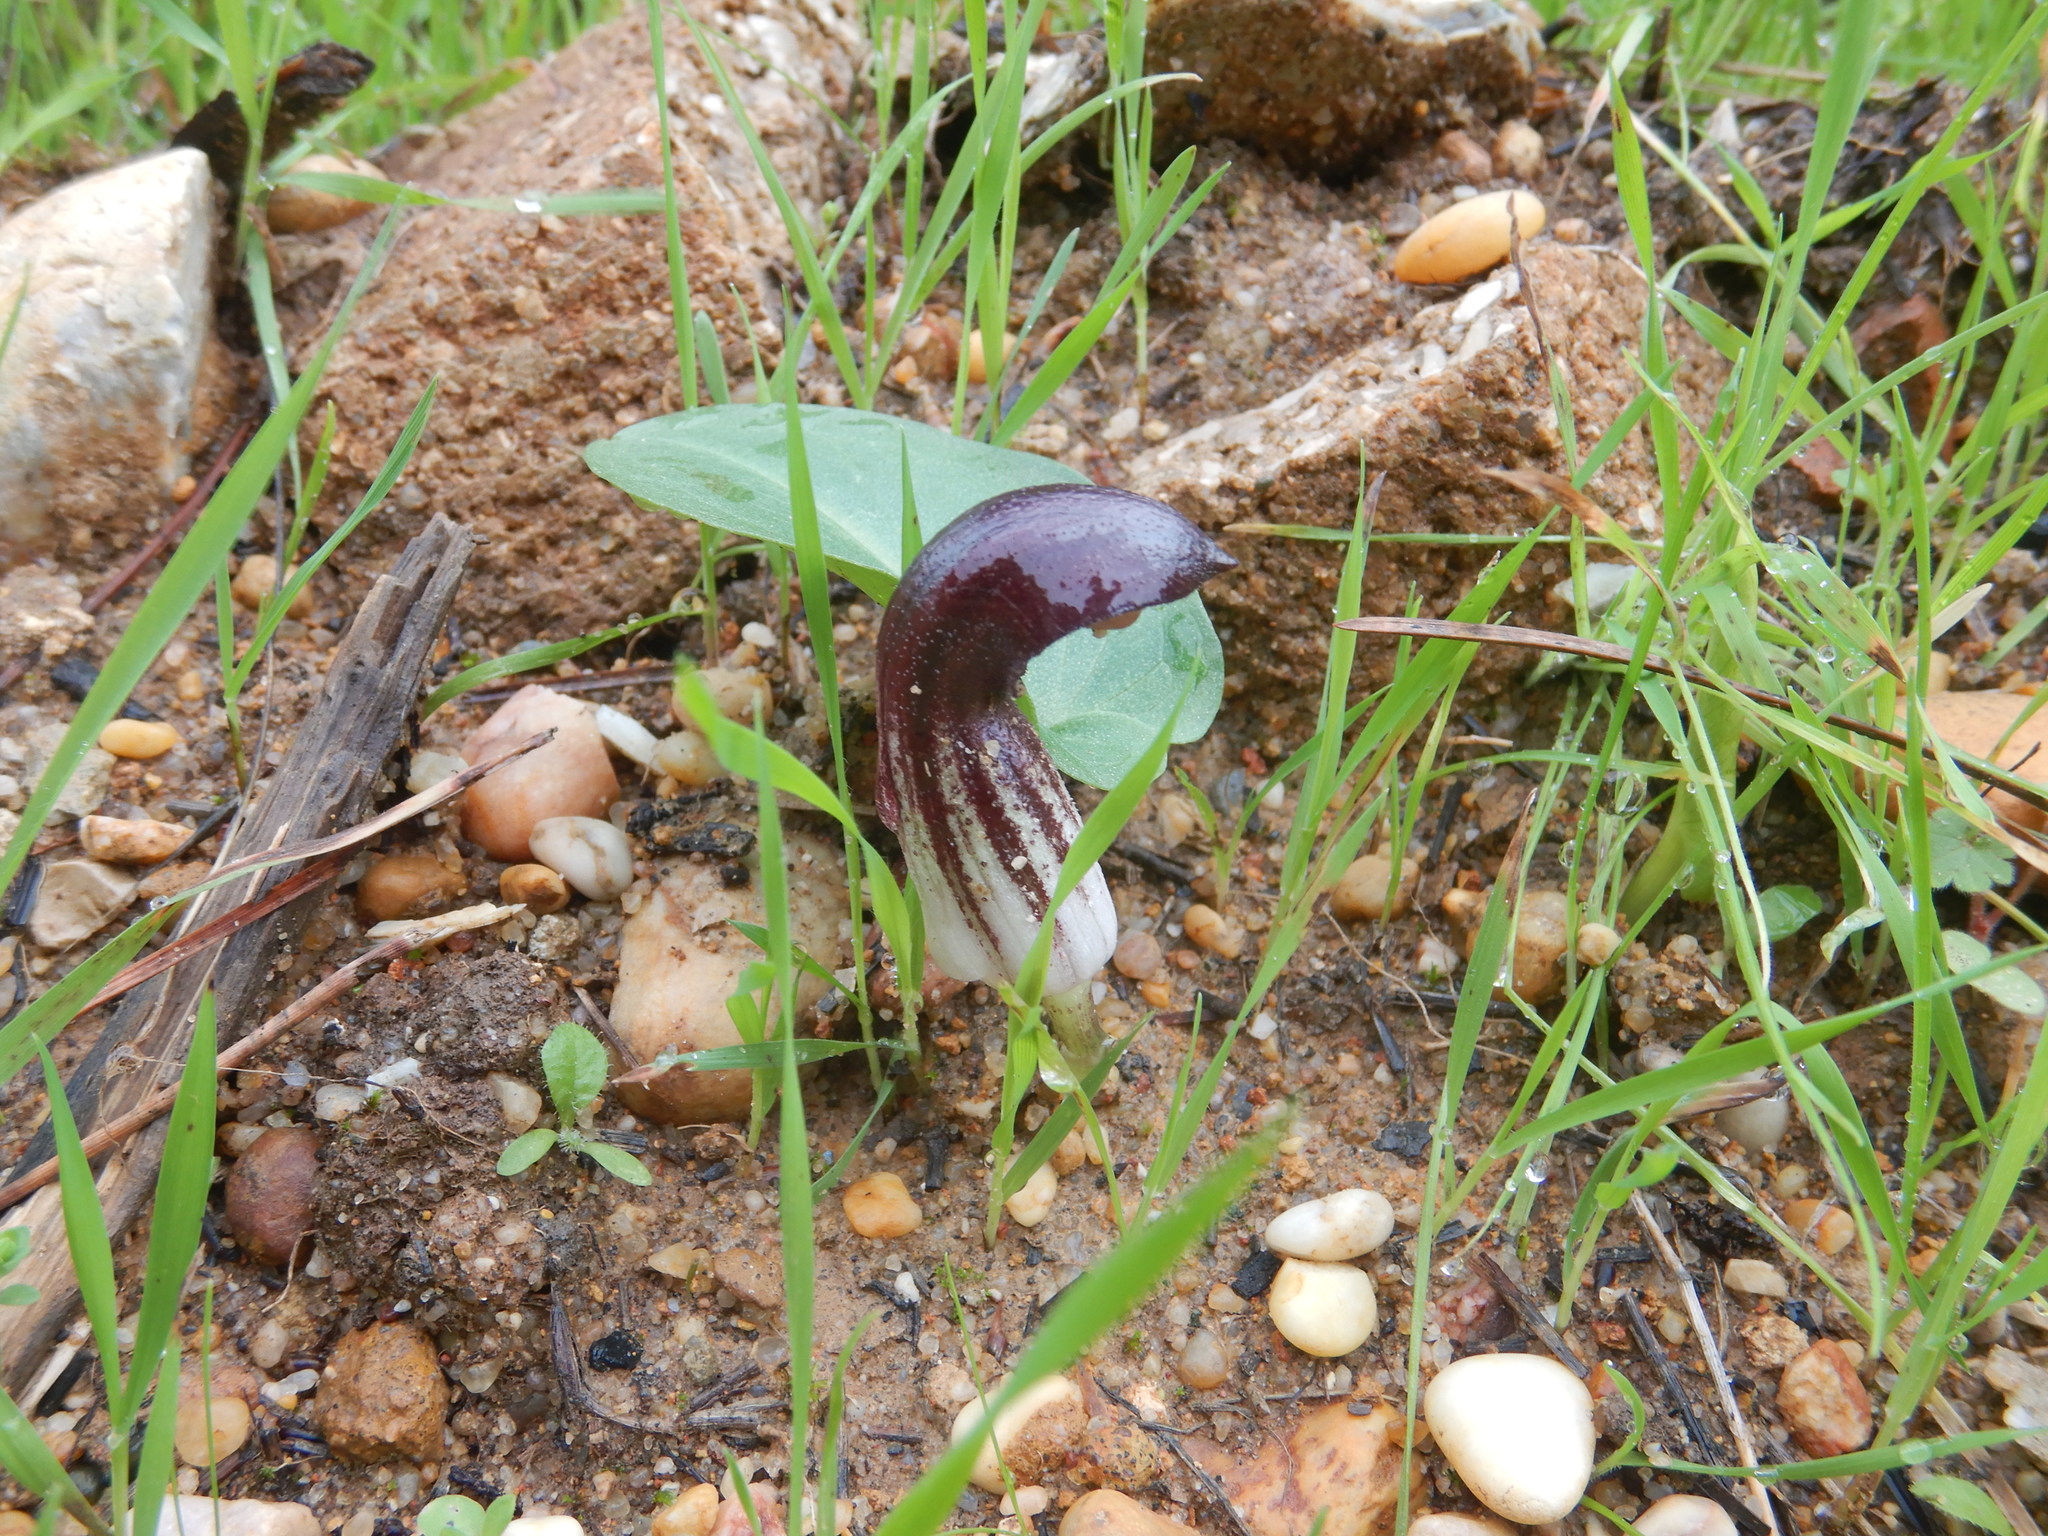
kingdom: Plantae
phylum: Tracheophyta
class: Liliopsida
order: Alismatales
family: Araceae
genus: Arisarum
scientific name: Arisarum simorrhinum
